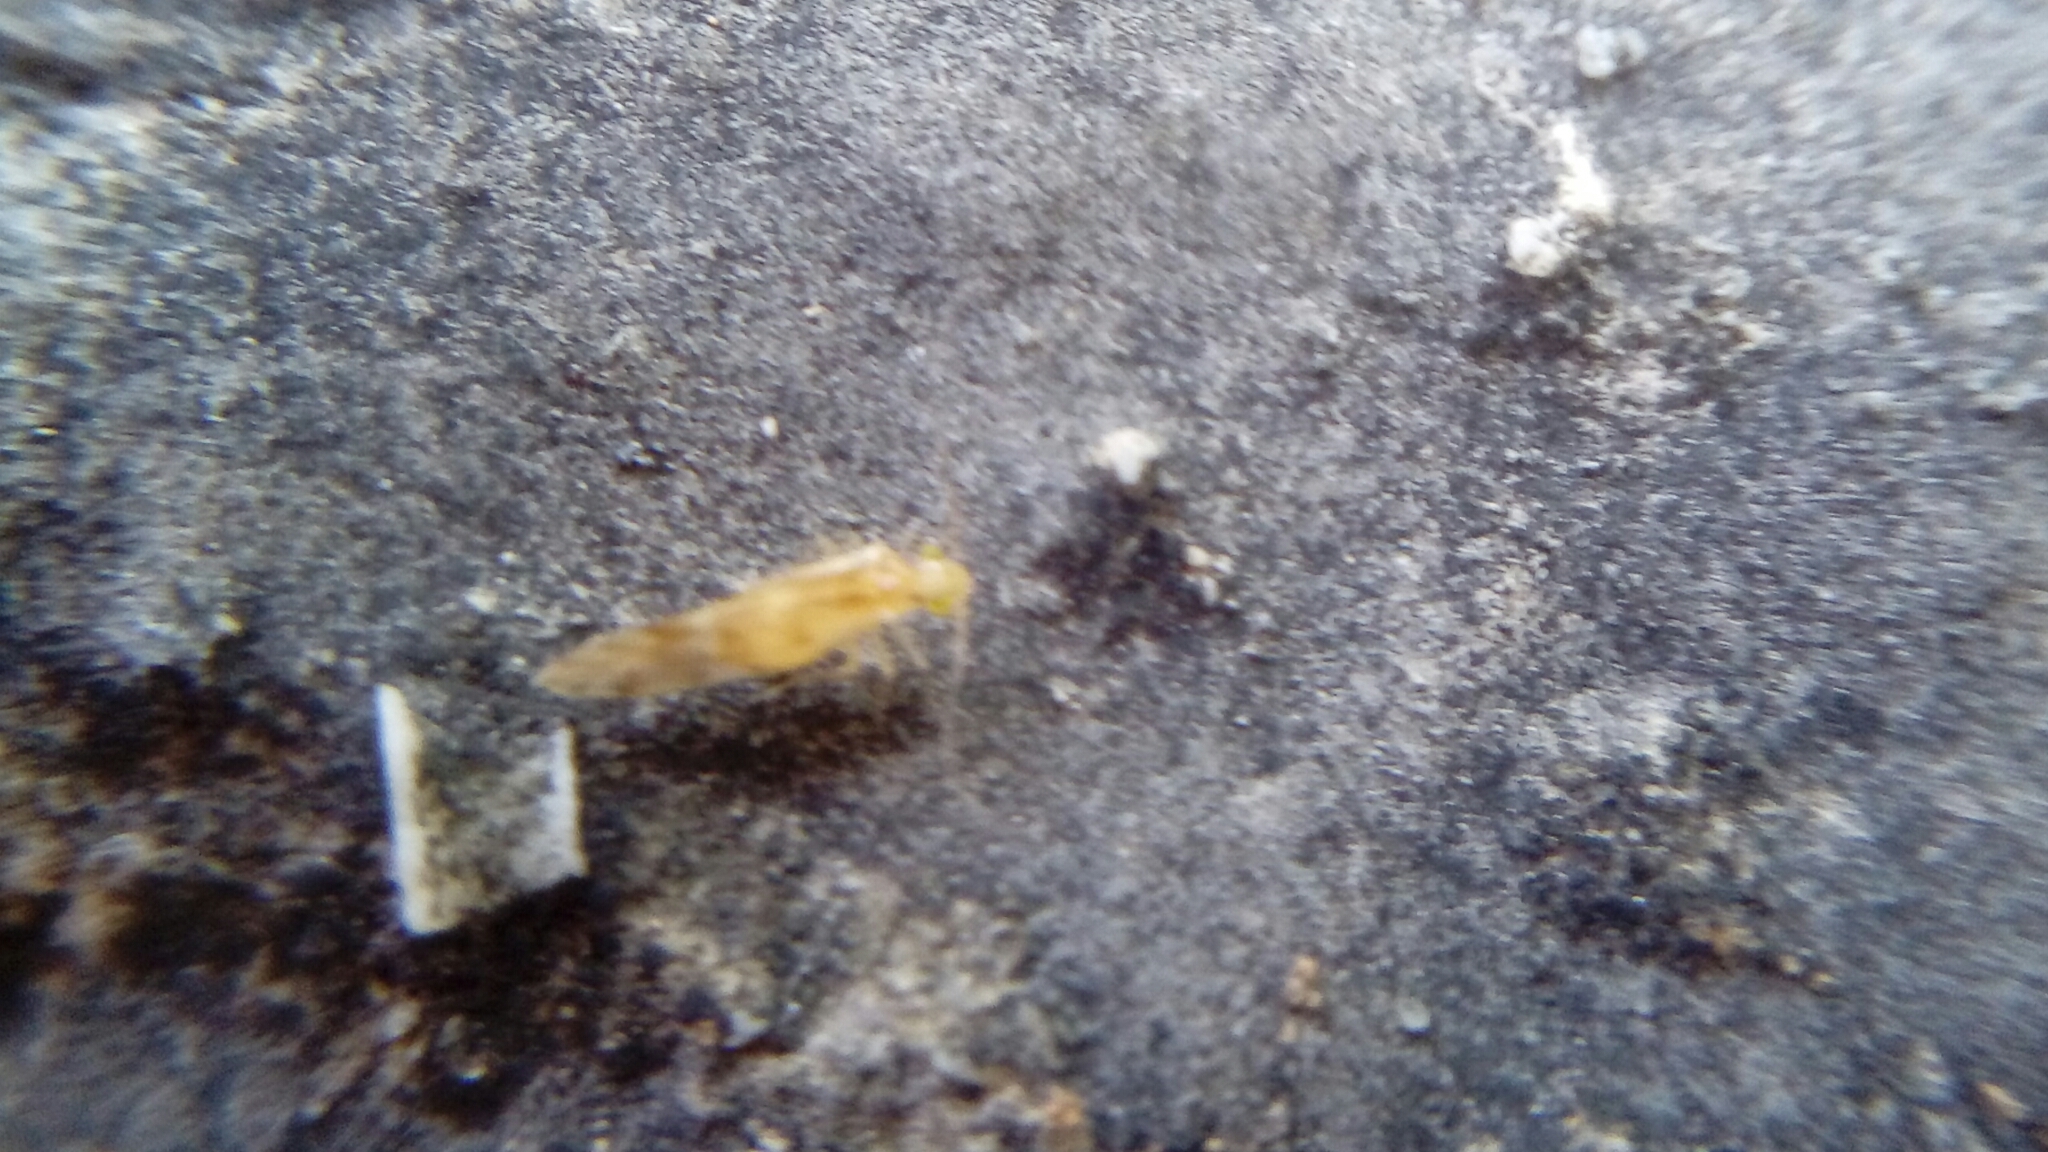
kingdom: Animalia
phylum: Arthropoda
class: Insecta
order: Psocodea
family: Paracaeciliidae
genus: Chilenocaecilius
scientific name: Chilenocaecilius ornatipennis
